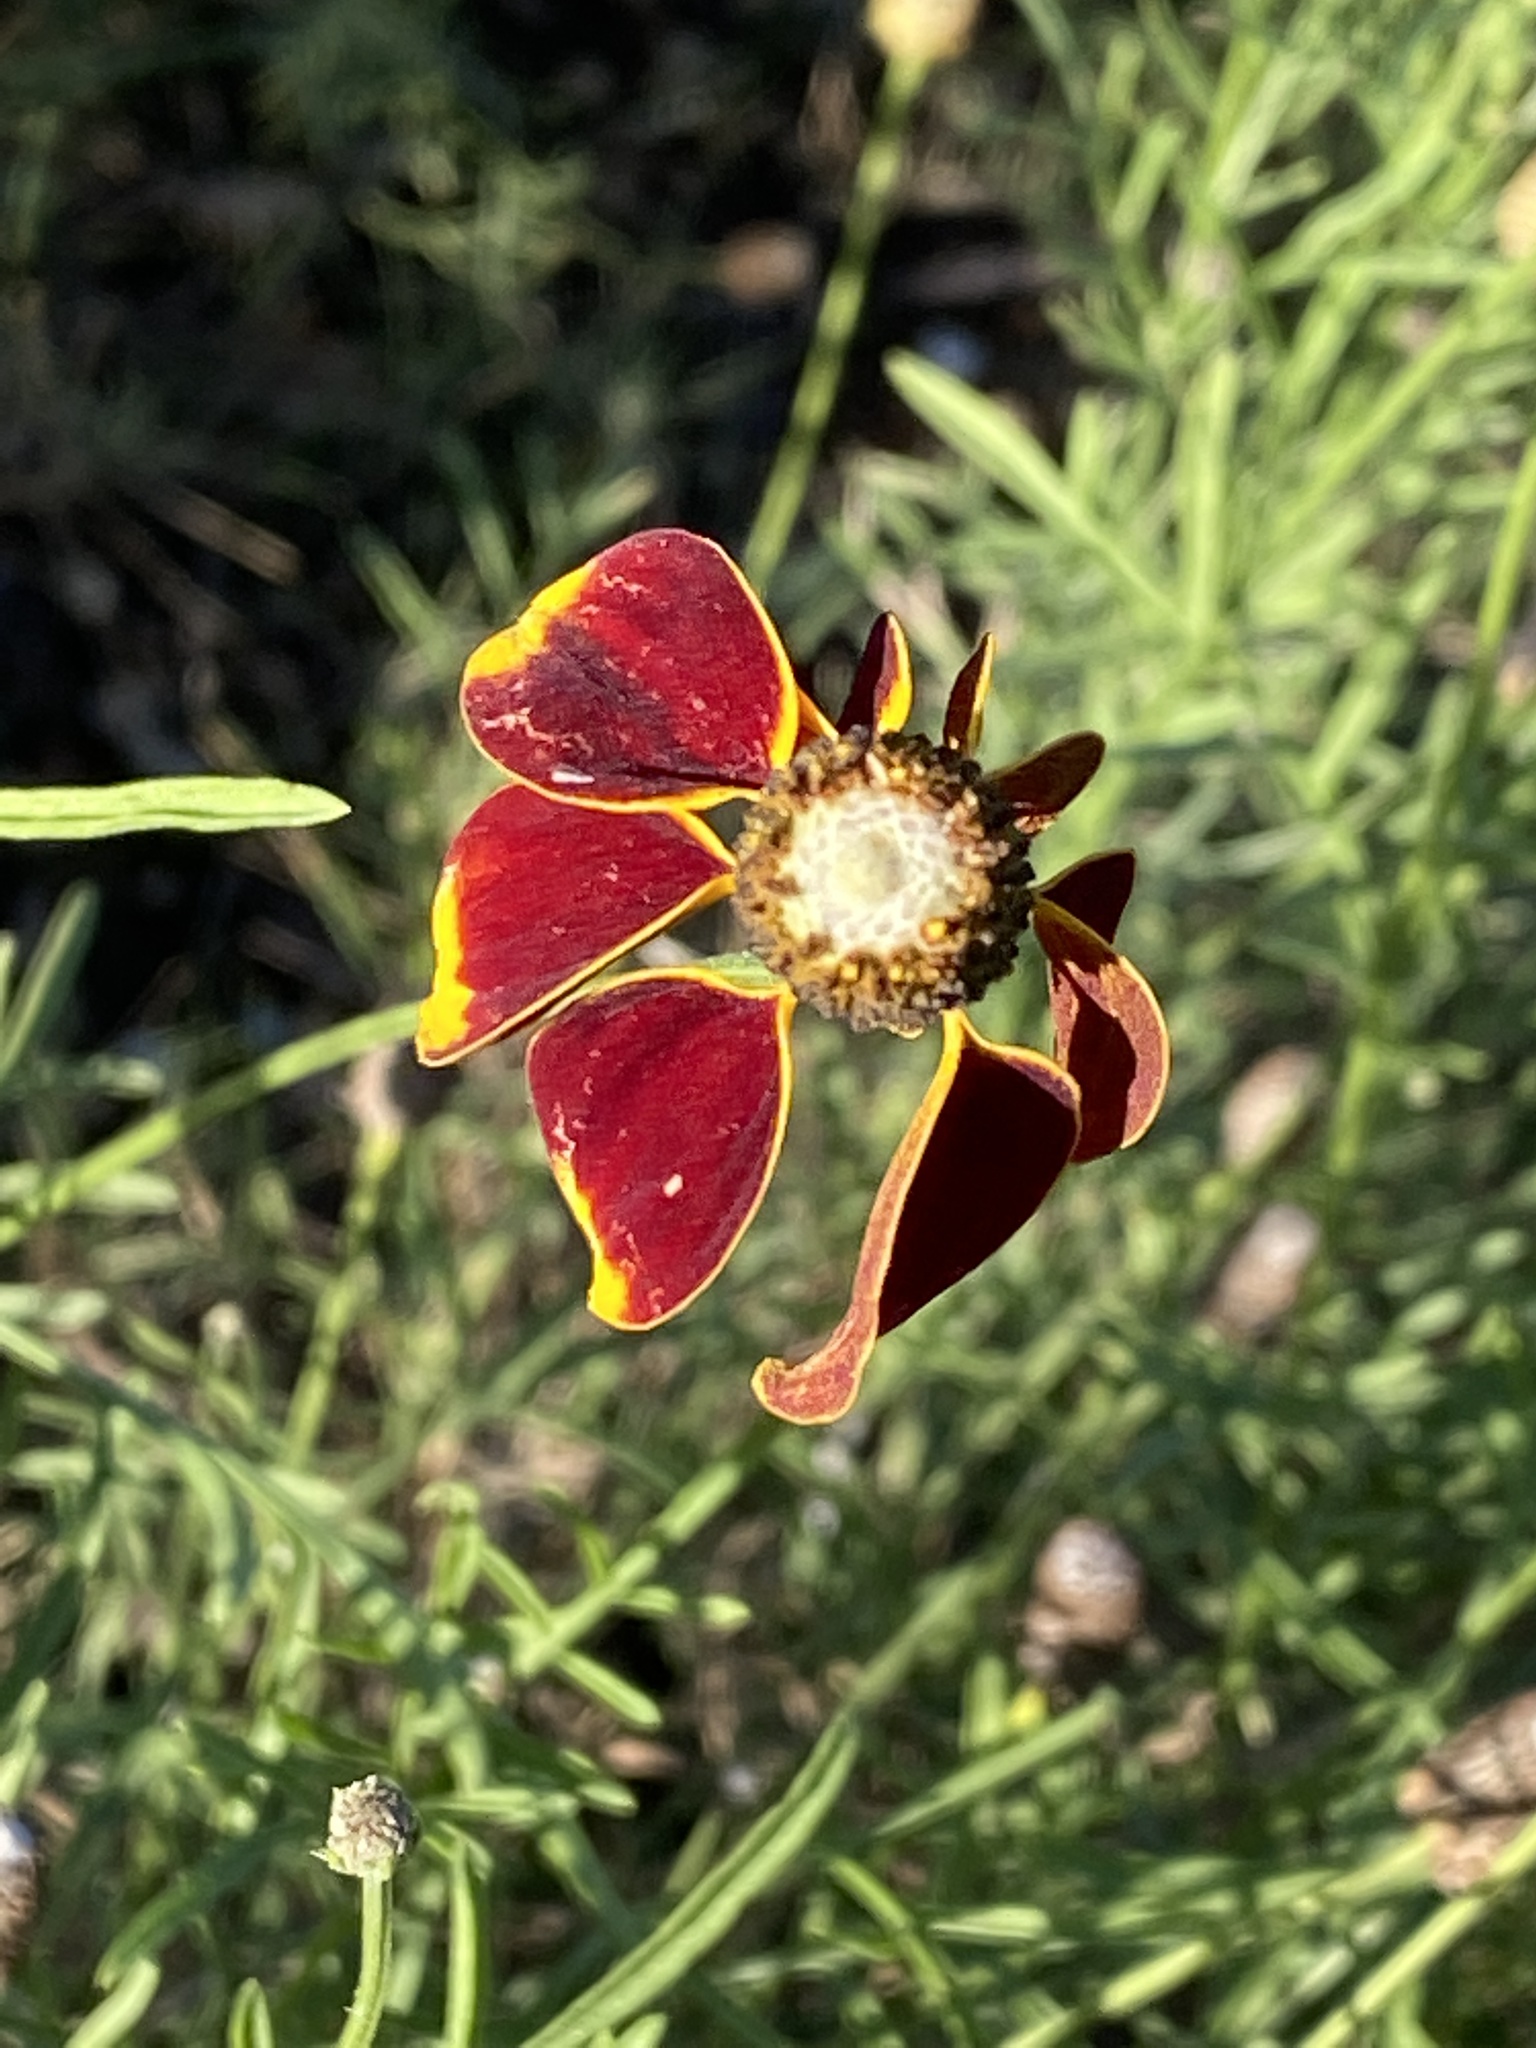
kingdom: Plantae
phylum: Tracheophyta
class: Magnoliopsida
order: Asterales
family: Asteraceae
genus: Ratibida
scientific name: Ratibida columnifera
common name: Prairie coneflower
